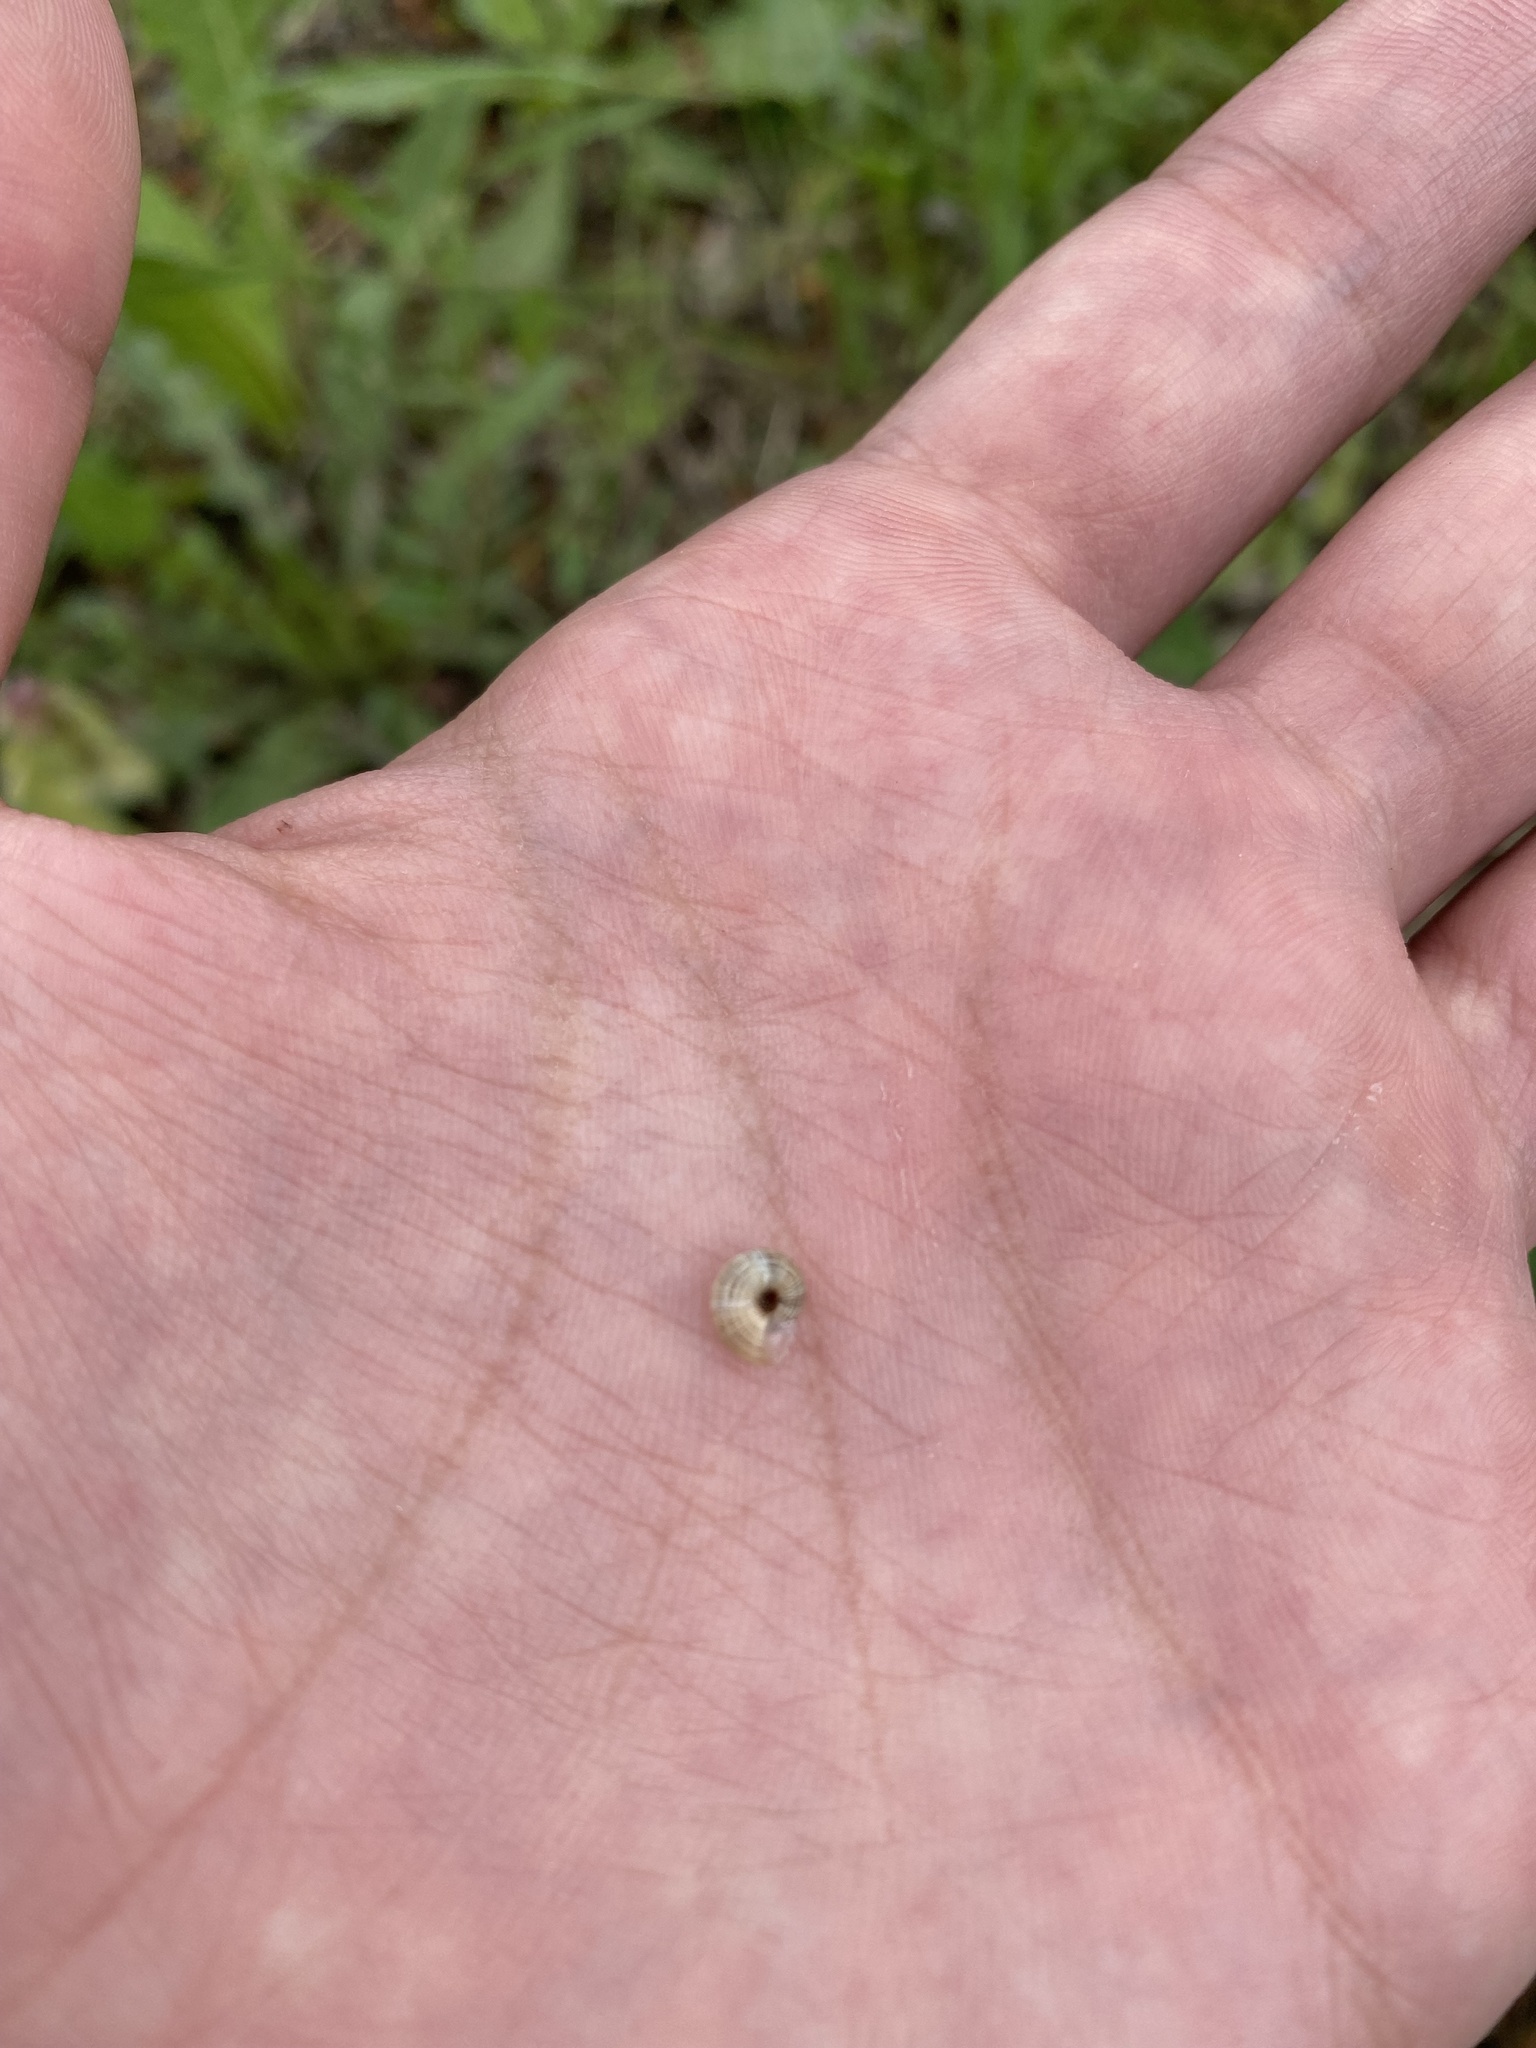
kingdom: Animalia
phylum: Mollusca
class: Gastropoda
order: Stylommatophora
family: Geomitridae
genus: Xeropicta
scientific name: Xeropicta
